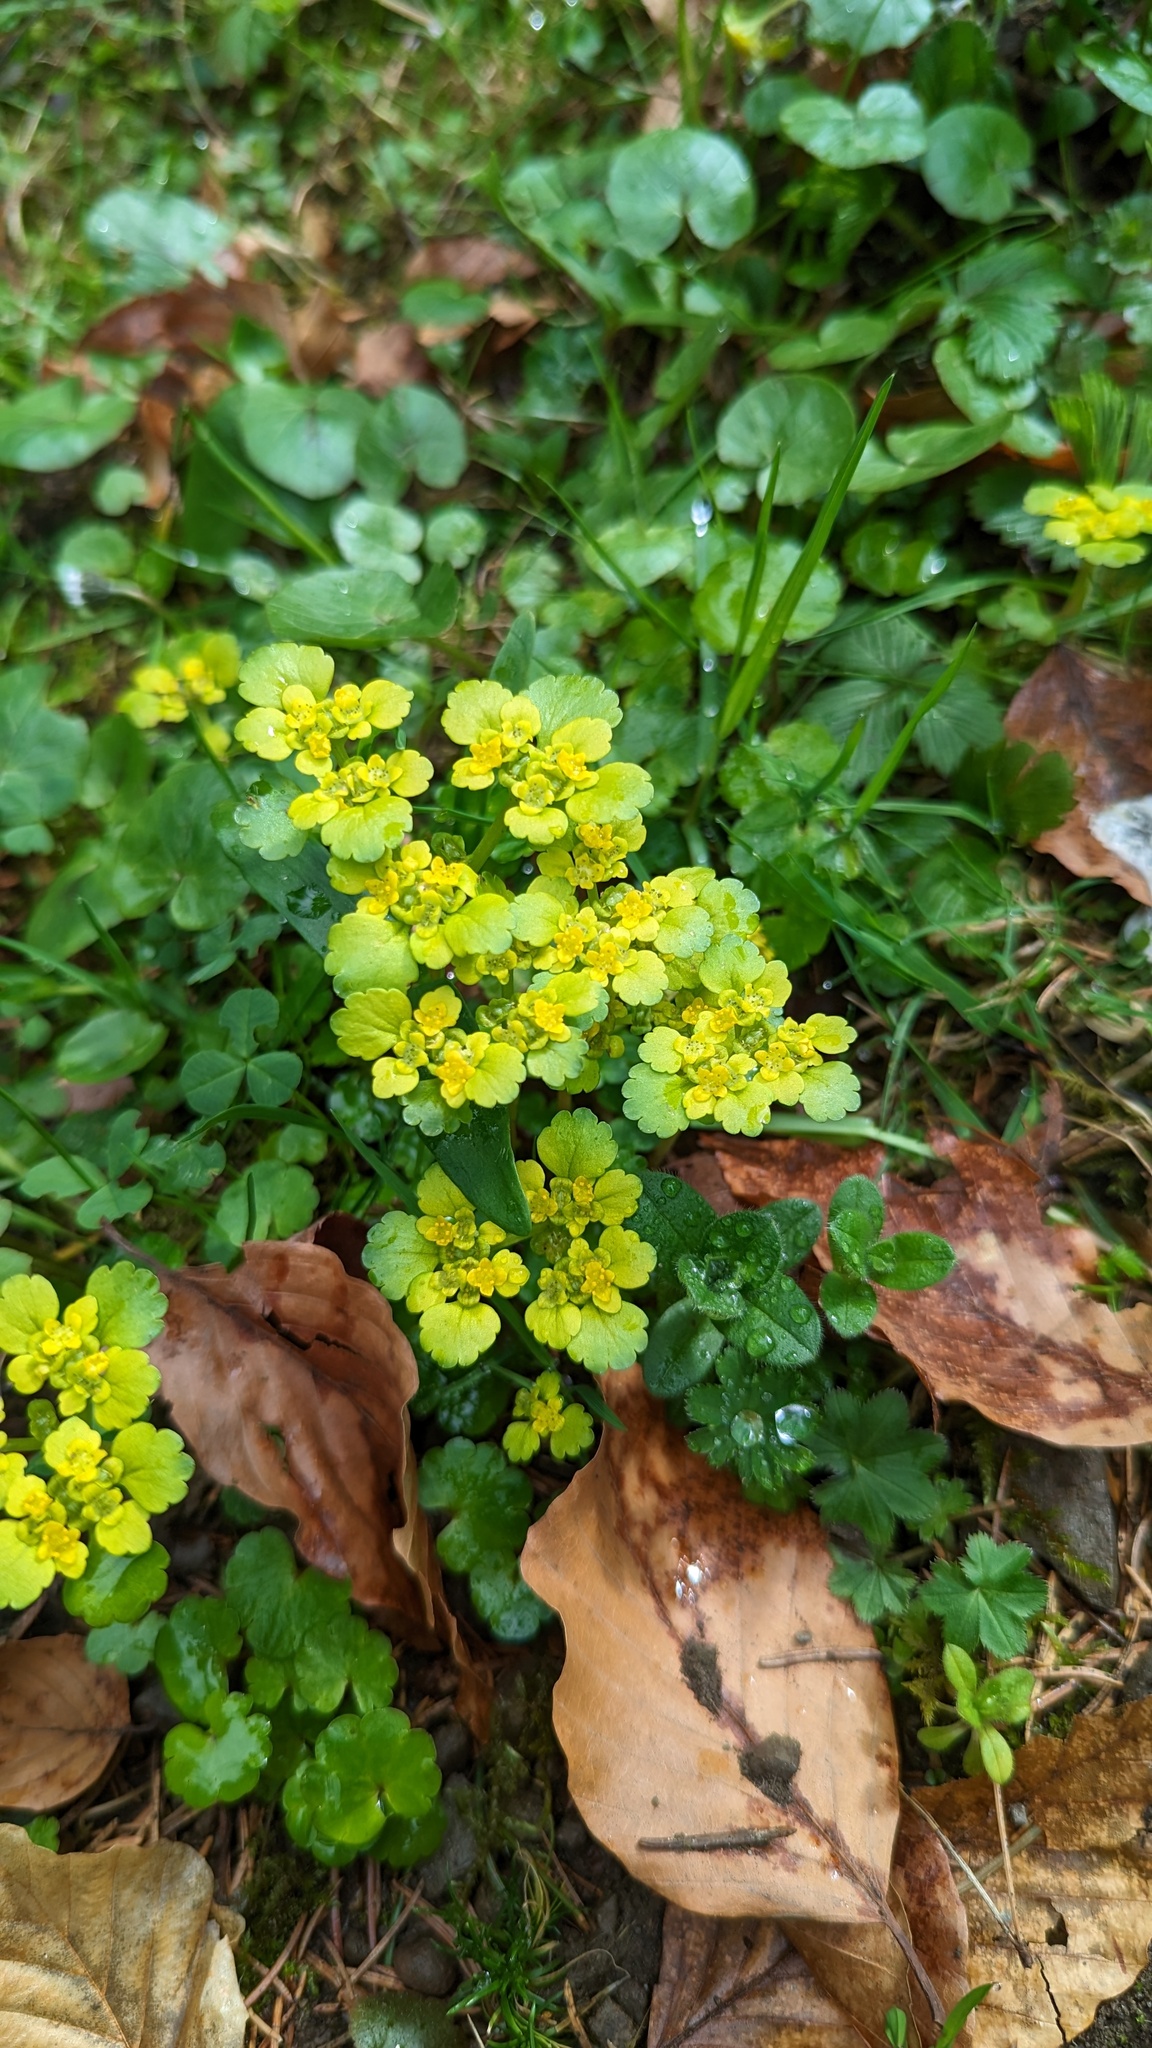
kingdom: Plantae
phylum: Tracheophyta
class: Magnoliopsida
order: Saxifragales
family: Saxifragaceae
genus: Chrysosplenium
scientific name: Chrysosplenium alternifolium
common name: Alternate-leaved golden-saxifrage
